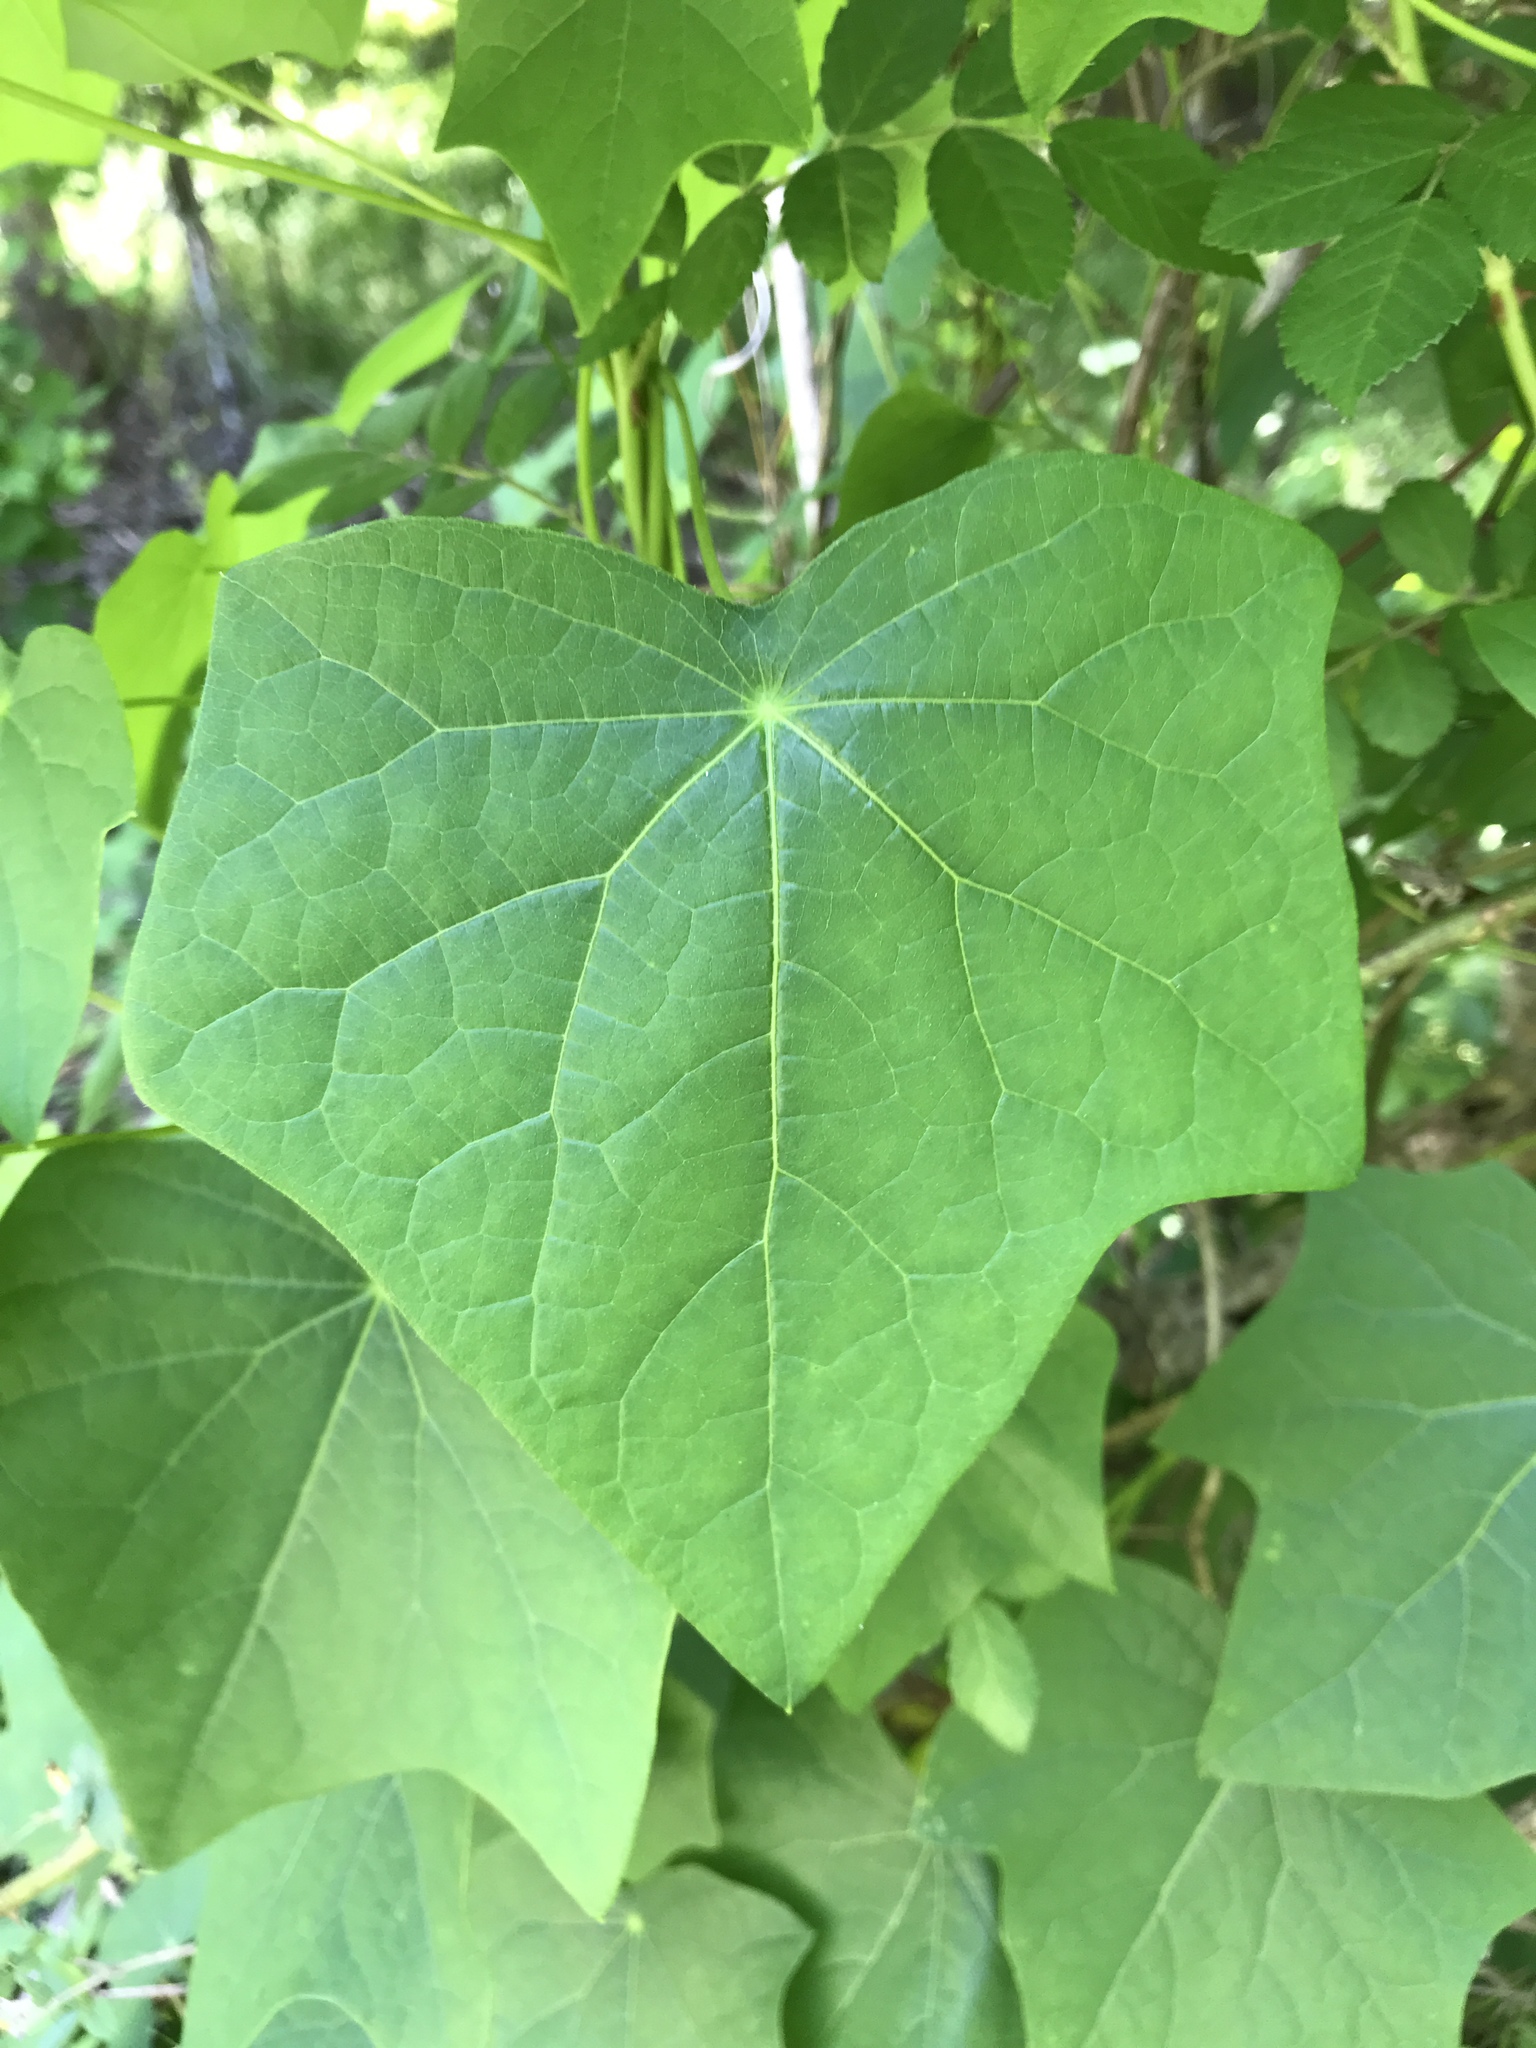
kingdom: Plantae
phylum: Tracheophyta
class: Magnoliopsida
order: Ranunculales
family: Menispermaceae
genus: Menispermum
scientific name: Menispermum canadense
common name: Moonseed
